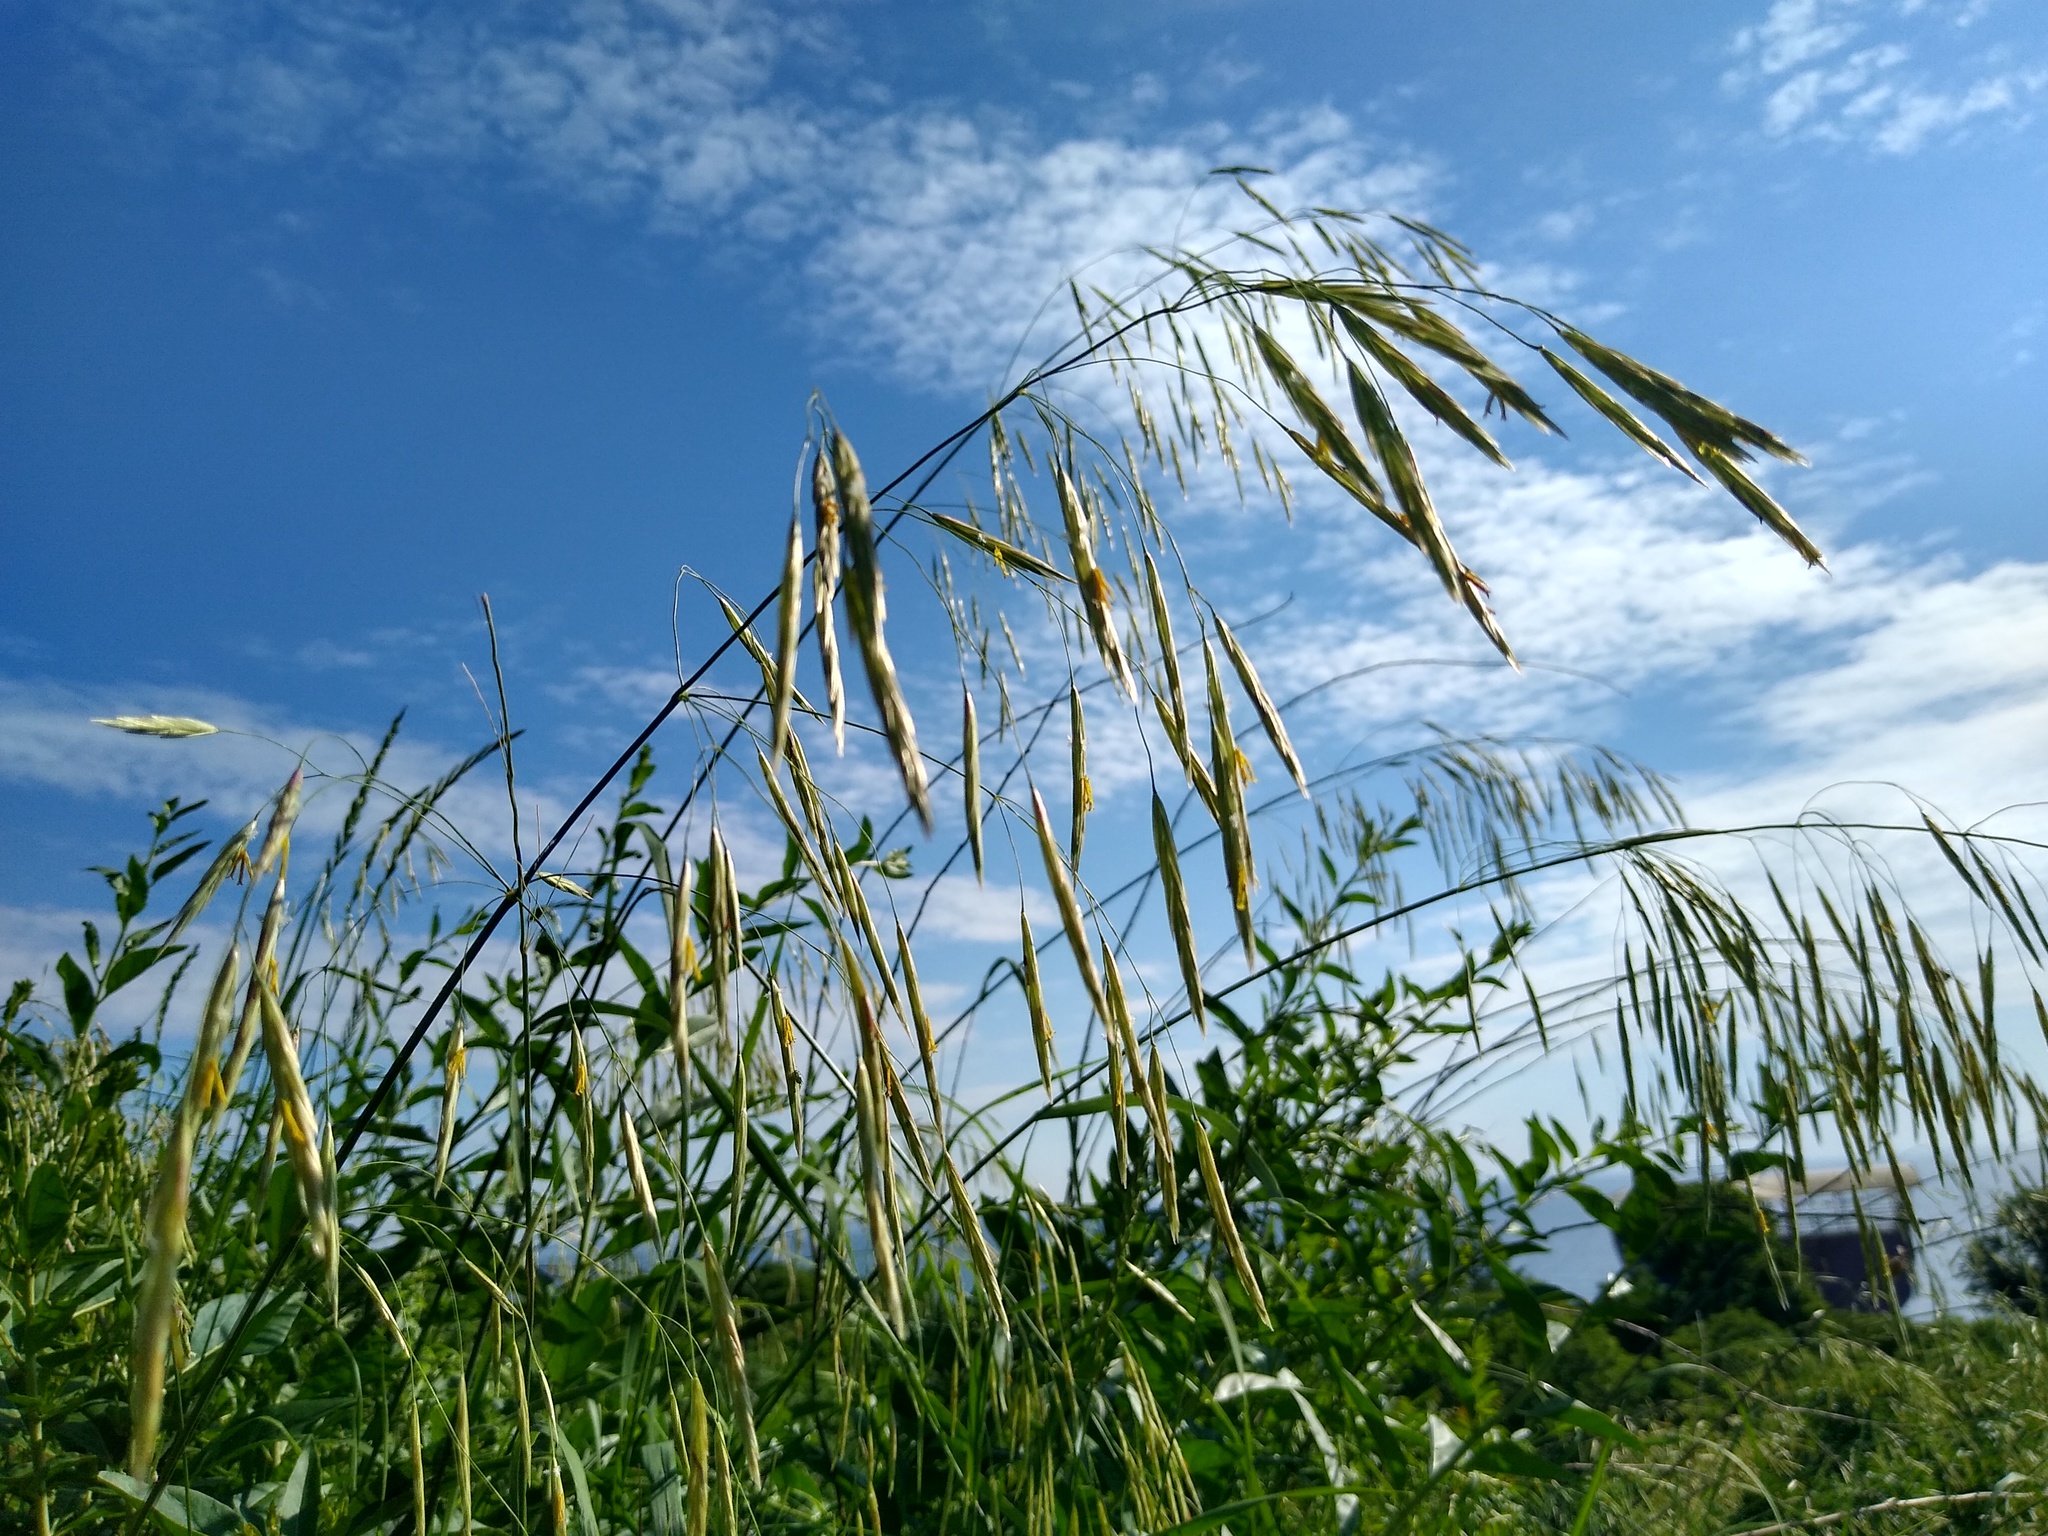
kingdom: Plantae
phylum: Tracheophyta
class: Liliopsida
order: Poales
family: Poaceae
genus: Bromus
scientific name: Bromus inermis
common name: Smooth brome
